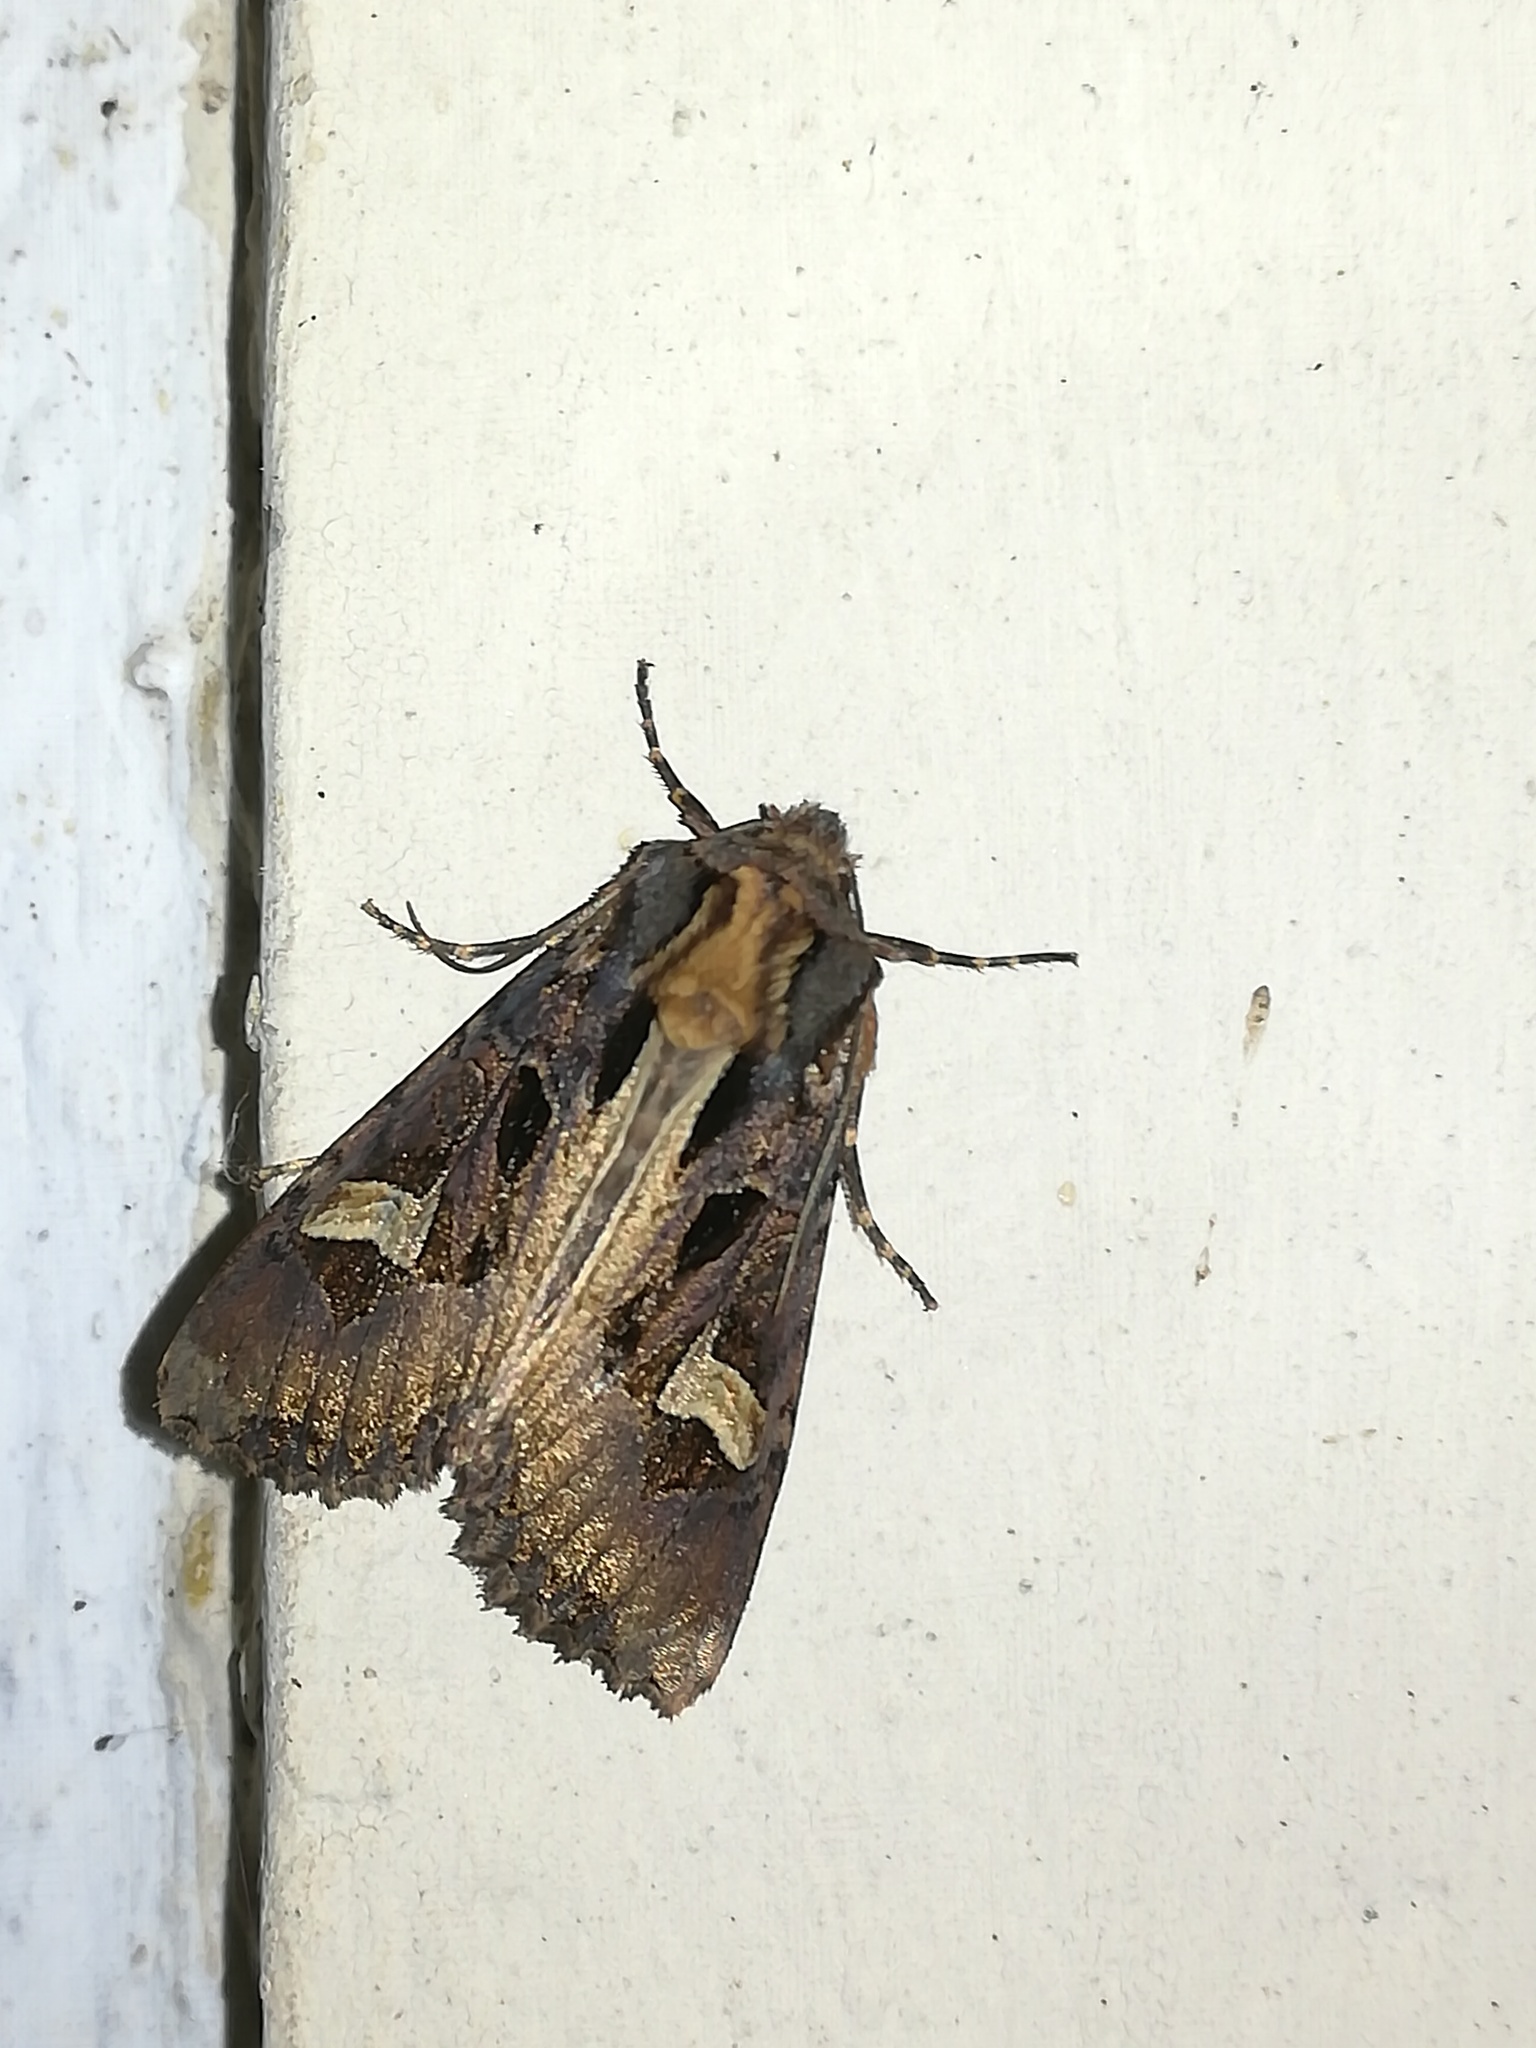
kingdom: Animalia
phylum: Arthropoda
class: Insecta
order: Lepidoptera
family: Noctuidae
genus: Trigonophora
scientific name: Trigonophora flammea
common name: Flame brocade
